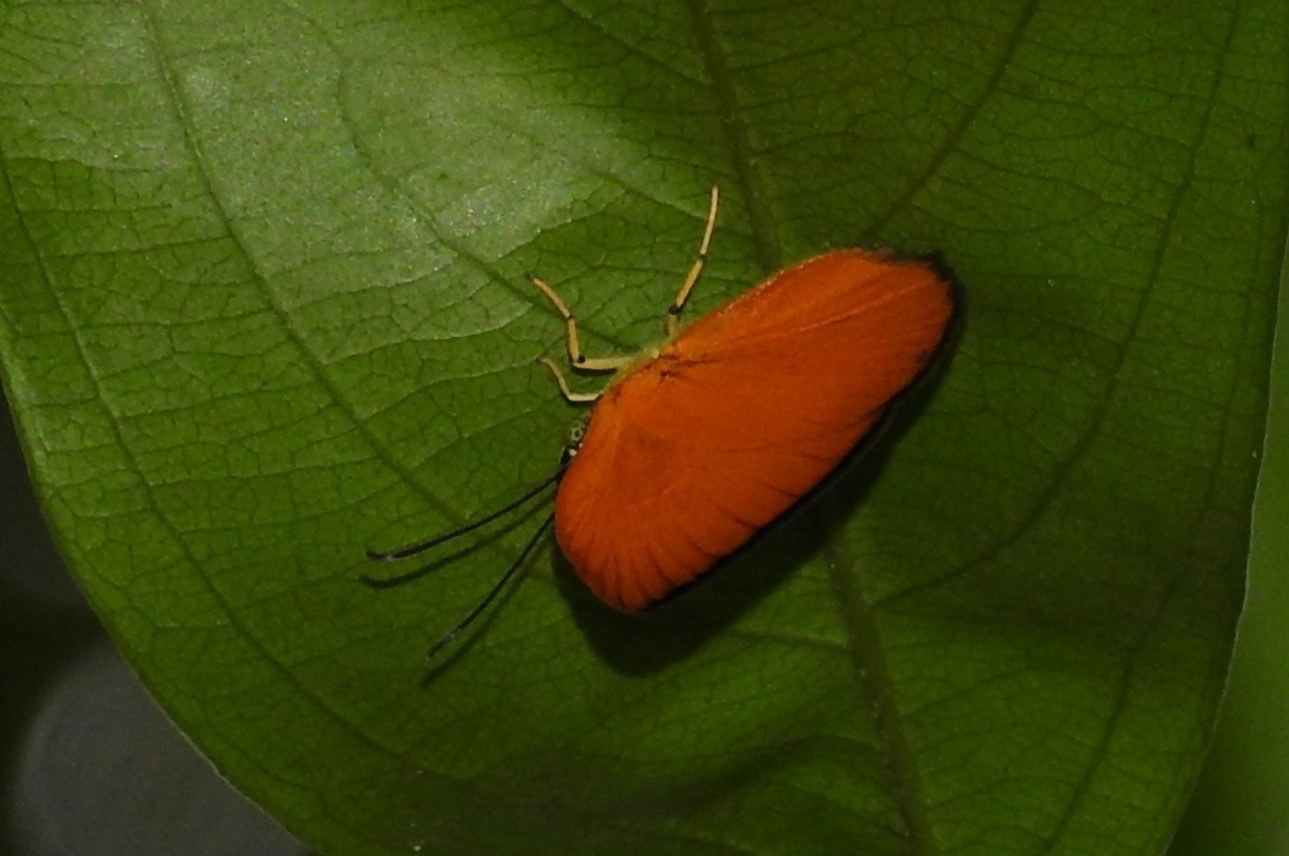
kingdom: Animalia
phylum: Arthropoda
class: Insecta
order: Lepidoptera
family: Nymphalidae
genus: Ethope
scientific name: Ethope
